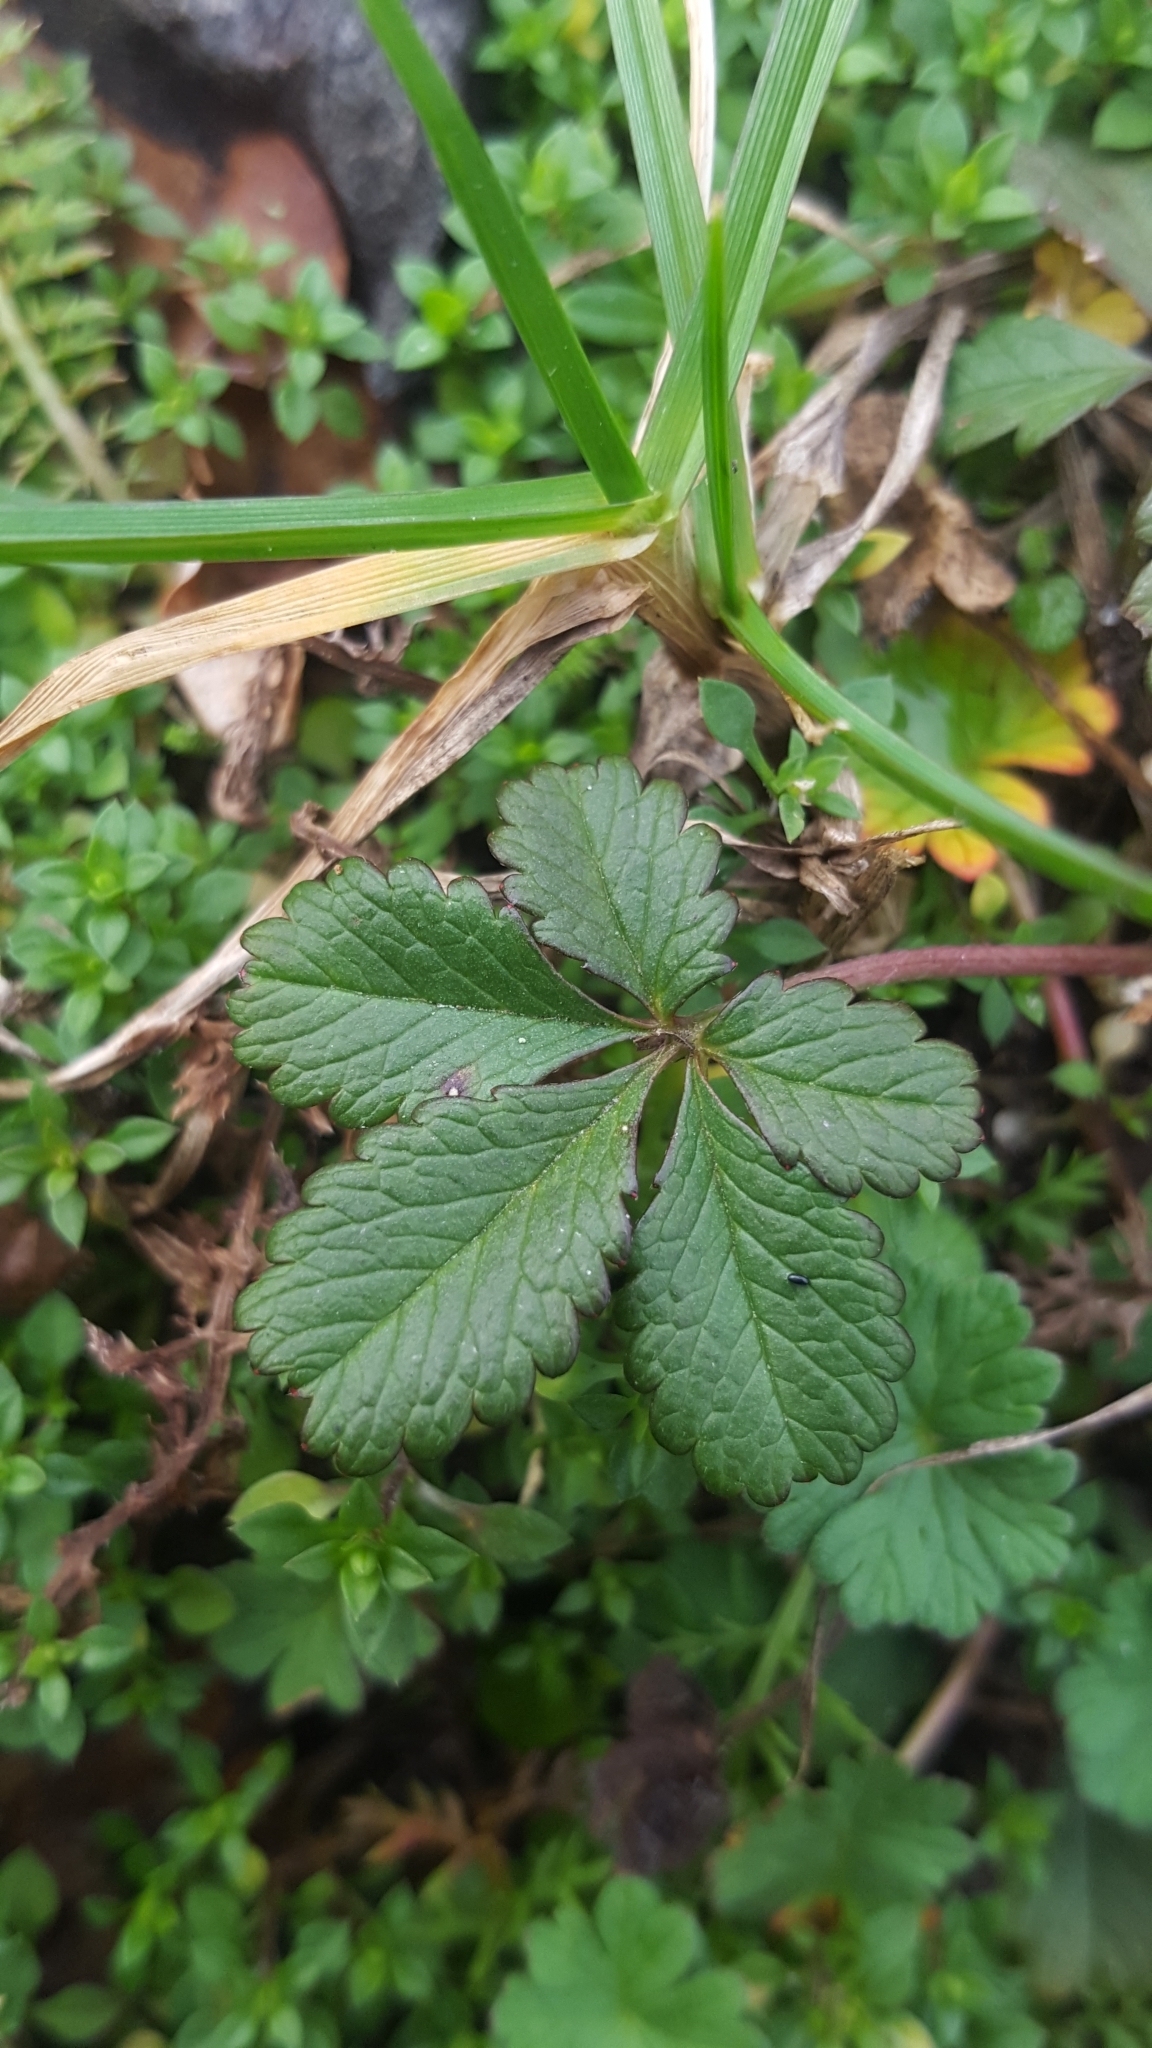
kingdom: Plantae
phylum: Tracheophyta
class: Magnoliopsida
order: Rosales
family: Rosaceae
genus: Potentilla
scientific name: Potentilla reptans
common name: Creeping cinquefoil
